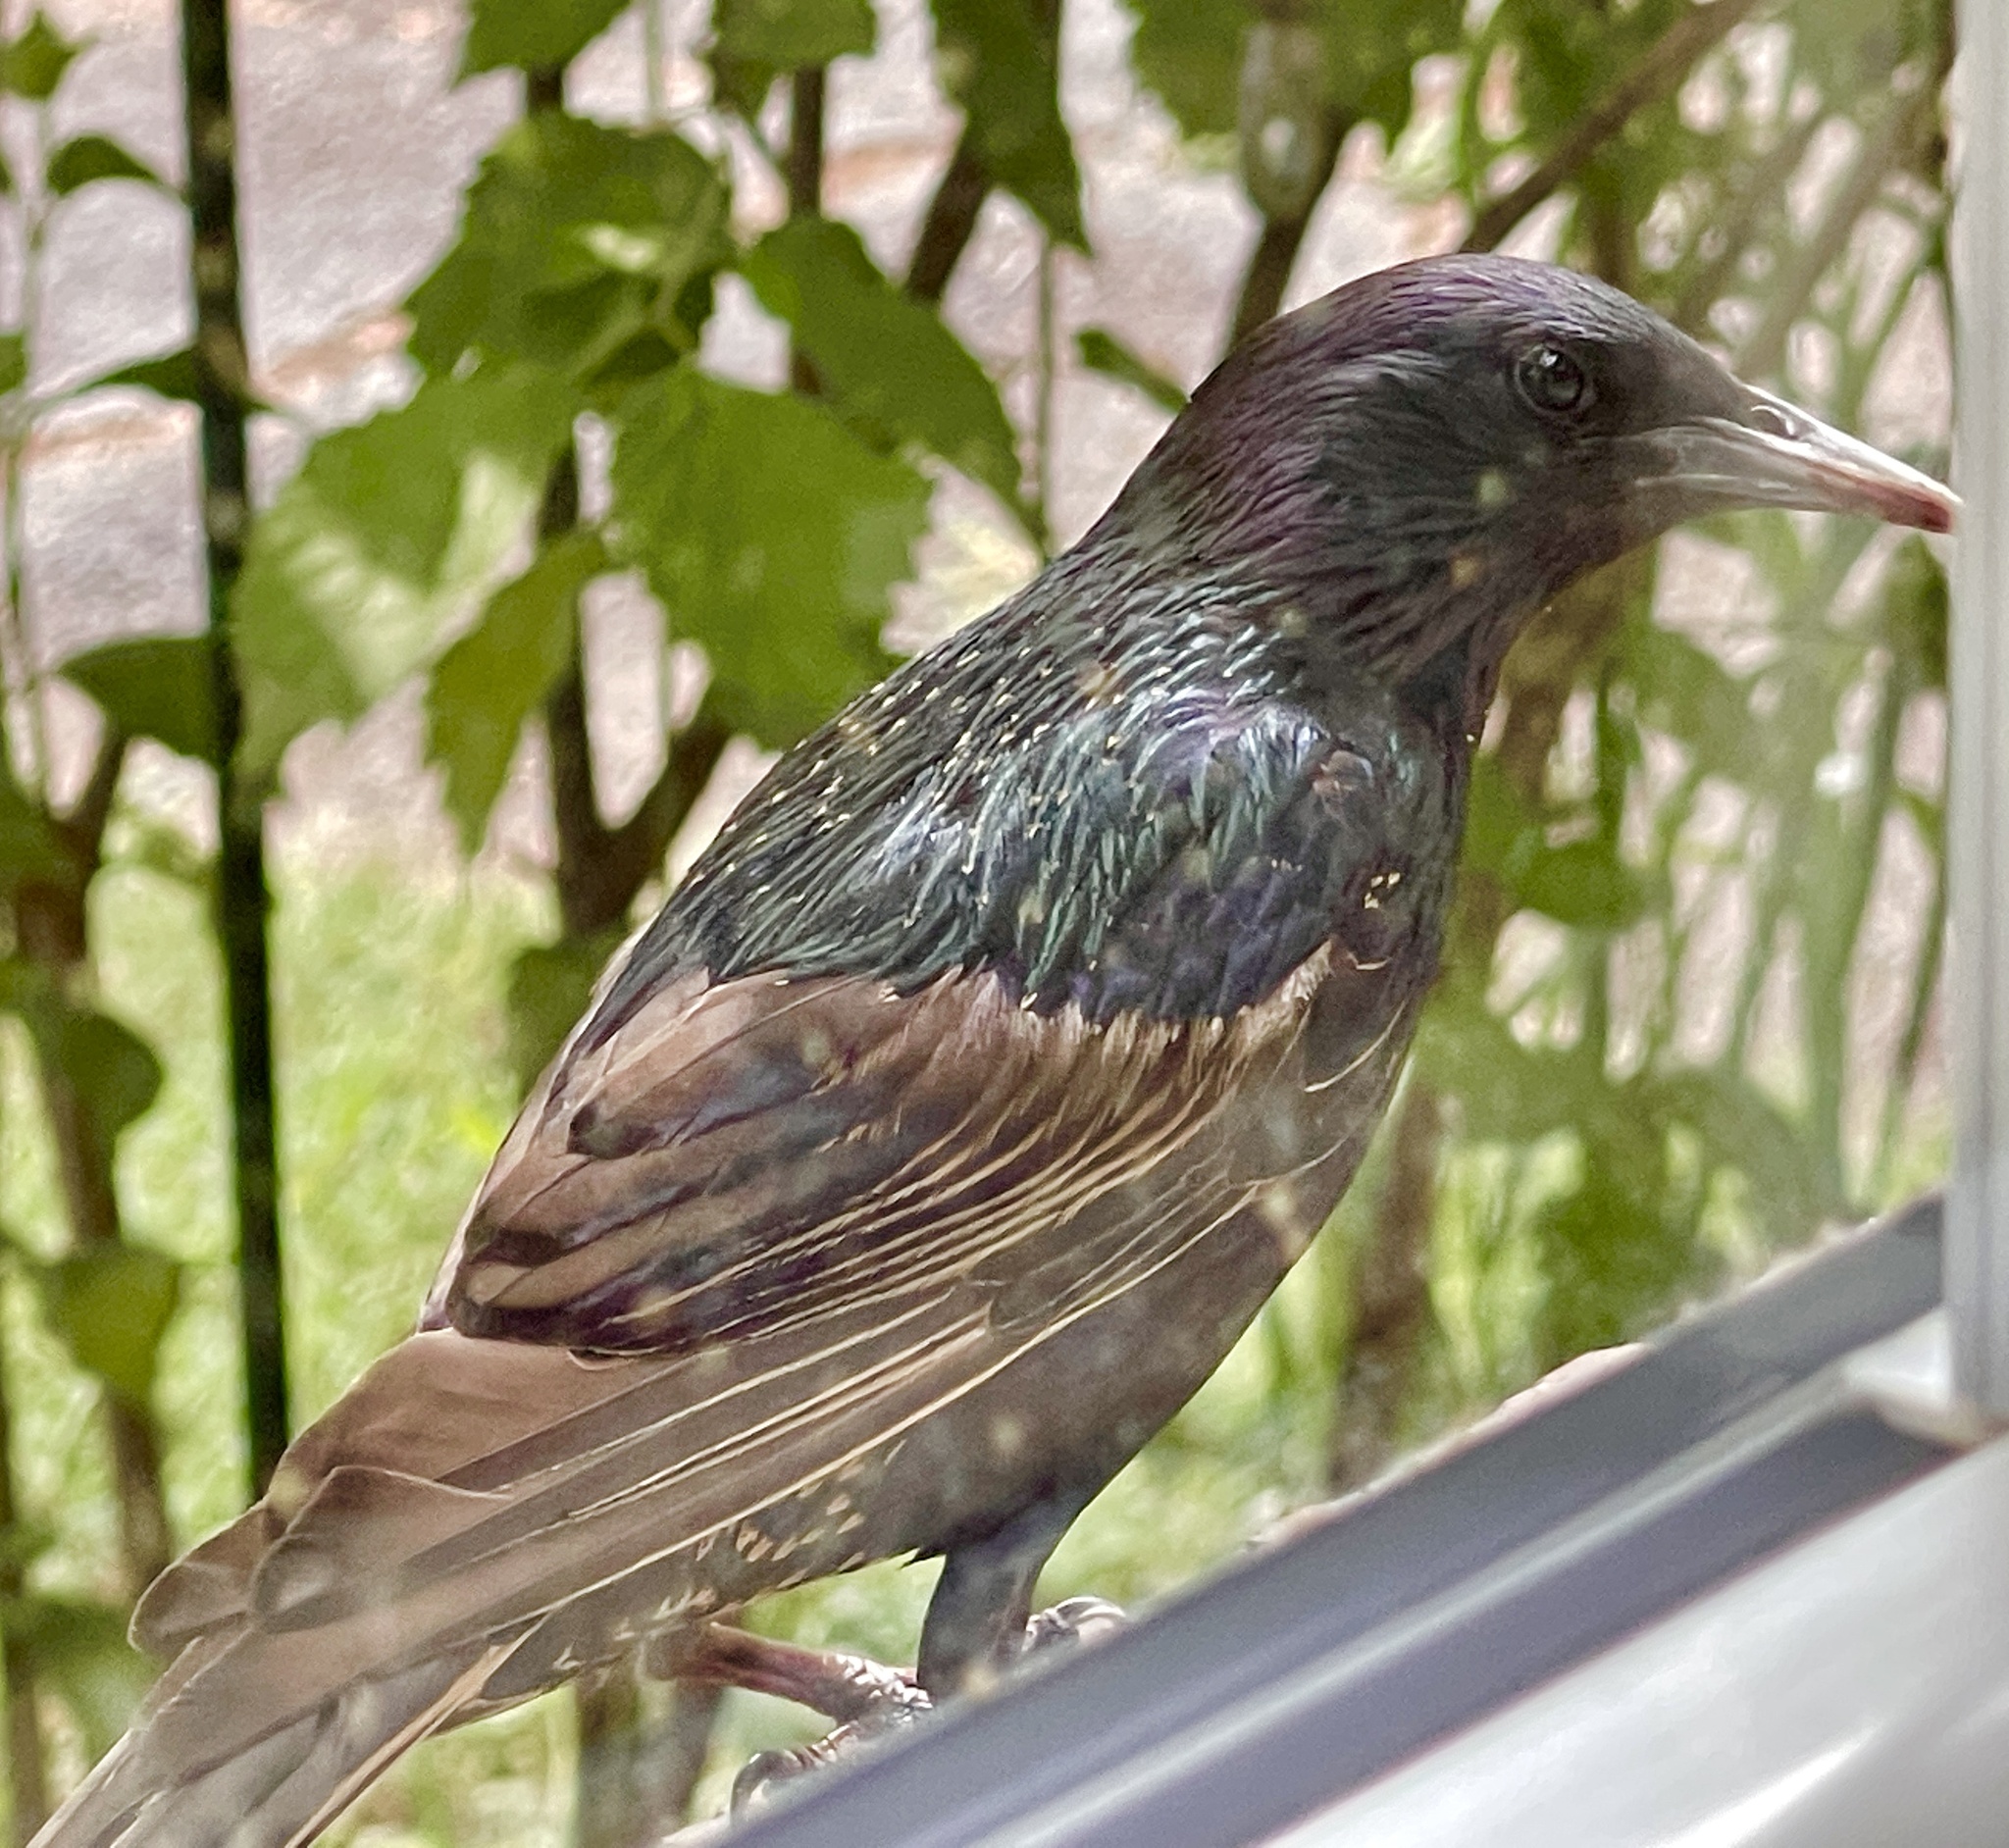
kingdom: Animalia
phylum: Chordata
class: Aves
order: Passeriformes
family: Sturnidae
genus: Sturnus
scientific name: Sturnus vulgaris
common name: Common starling
